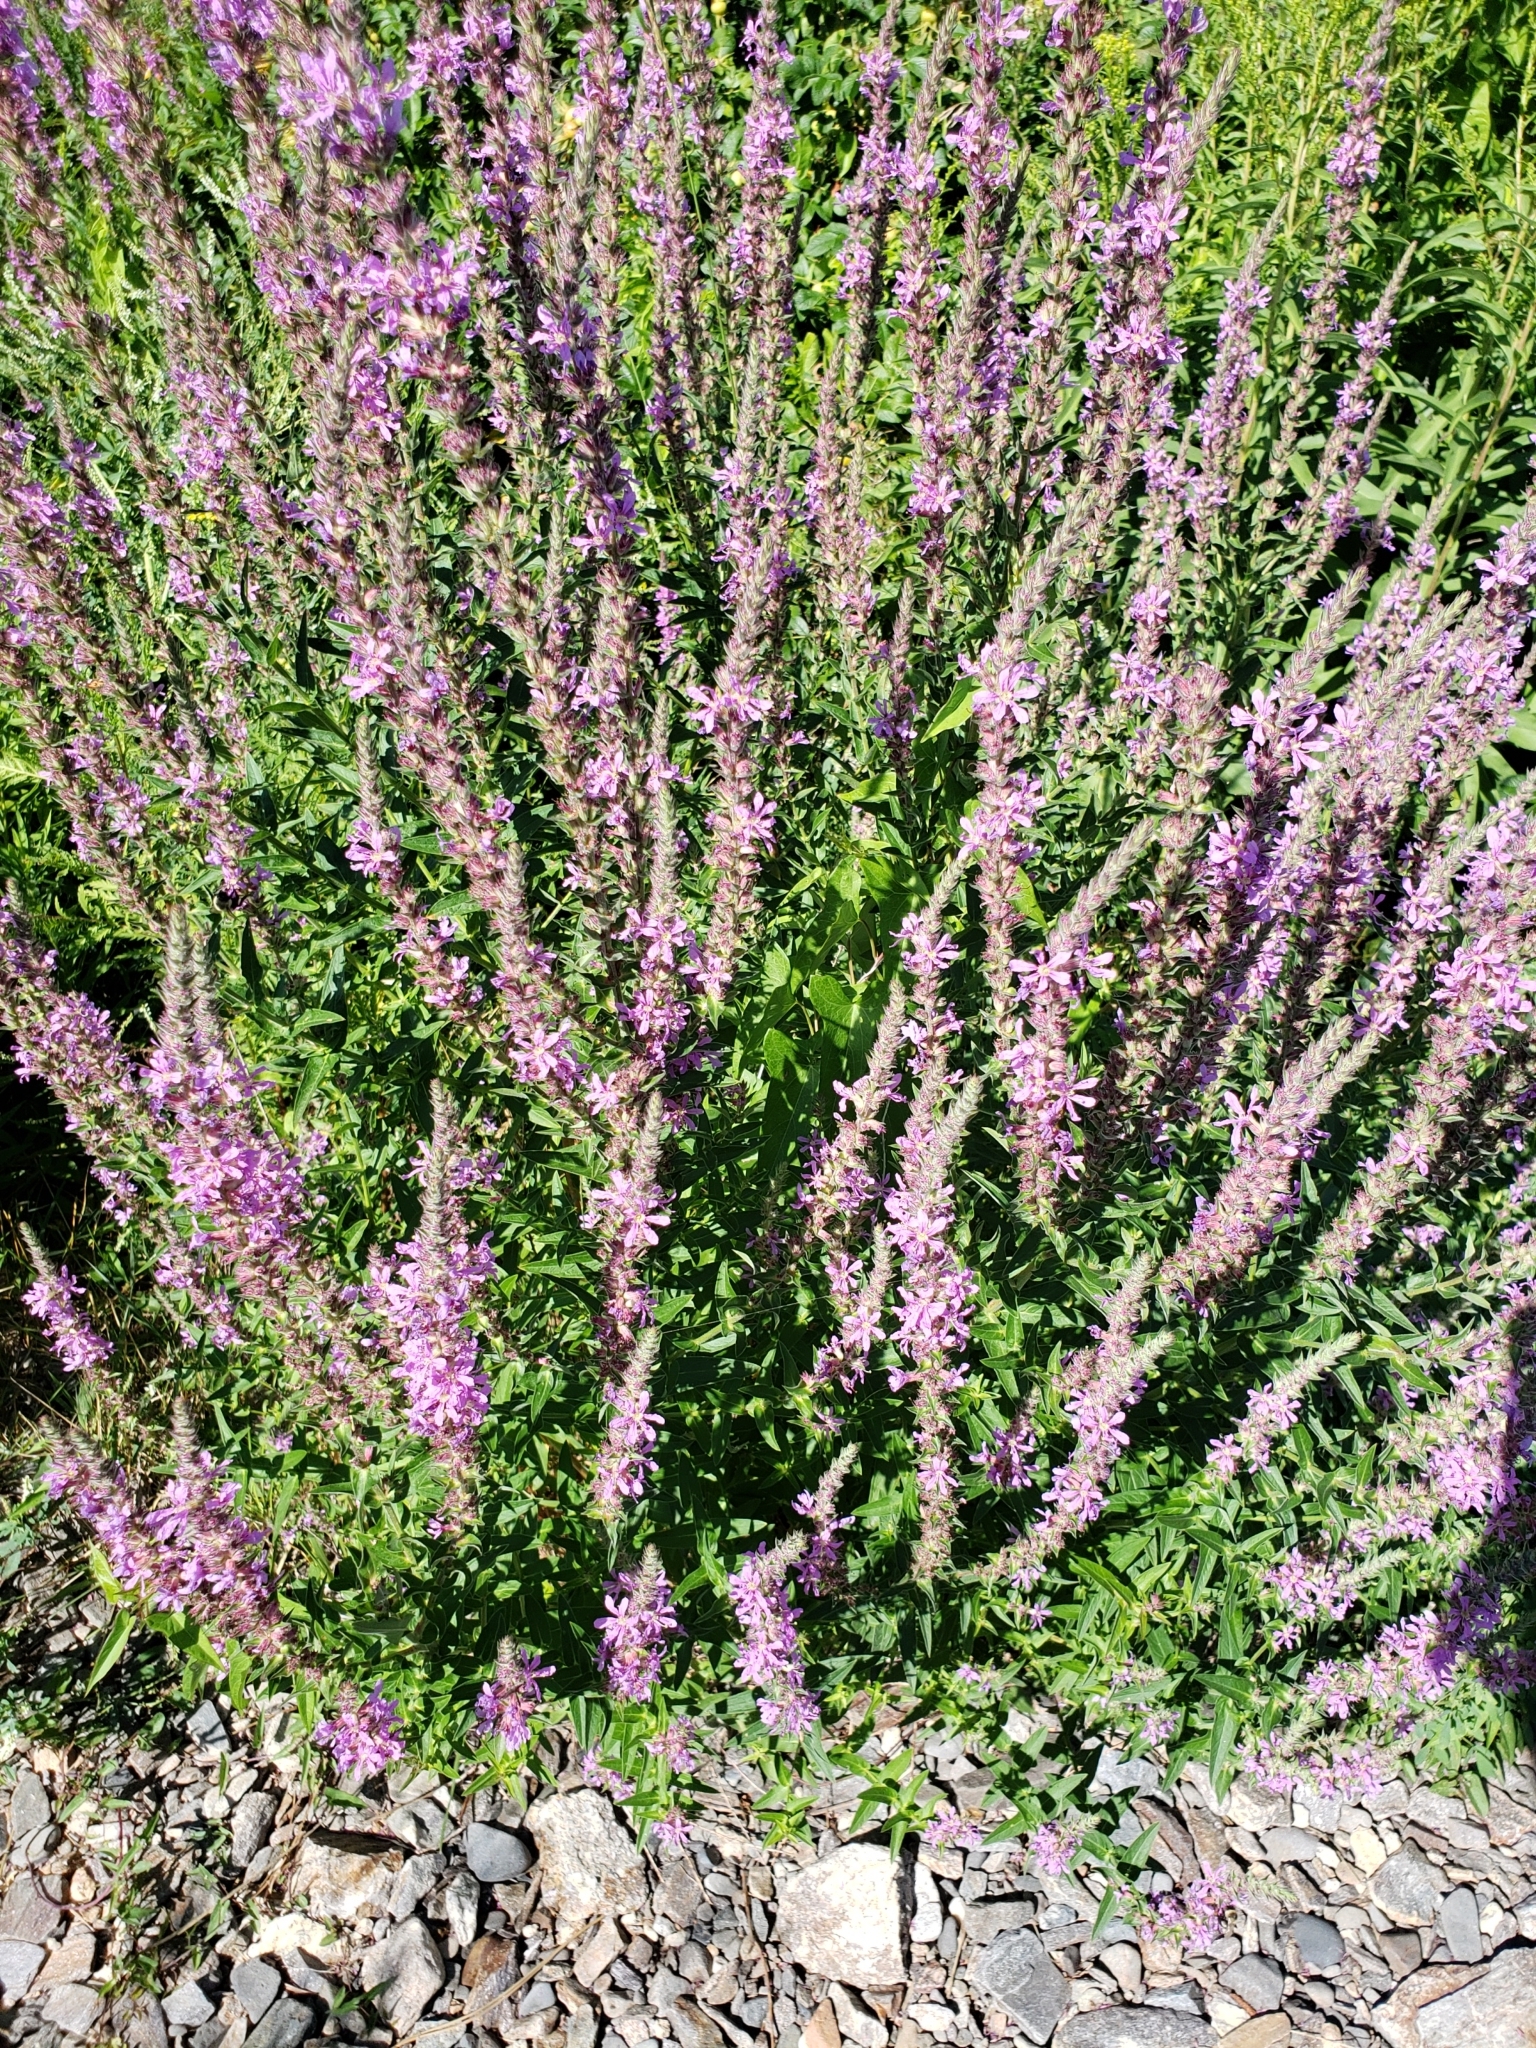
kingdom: Plantae
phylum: Tracheophyta
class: Magnoliopsida
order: Myrtales
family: Lythraceae
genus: Lythrum
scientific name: Lythrum salicaria
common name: Purple loosestrife
